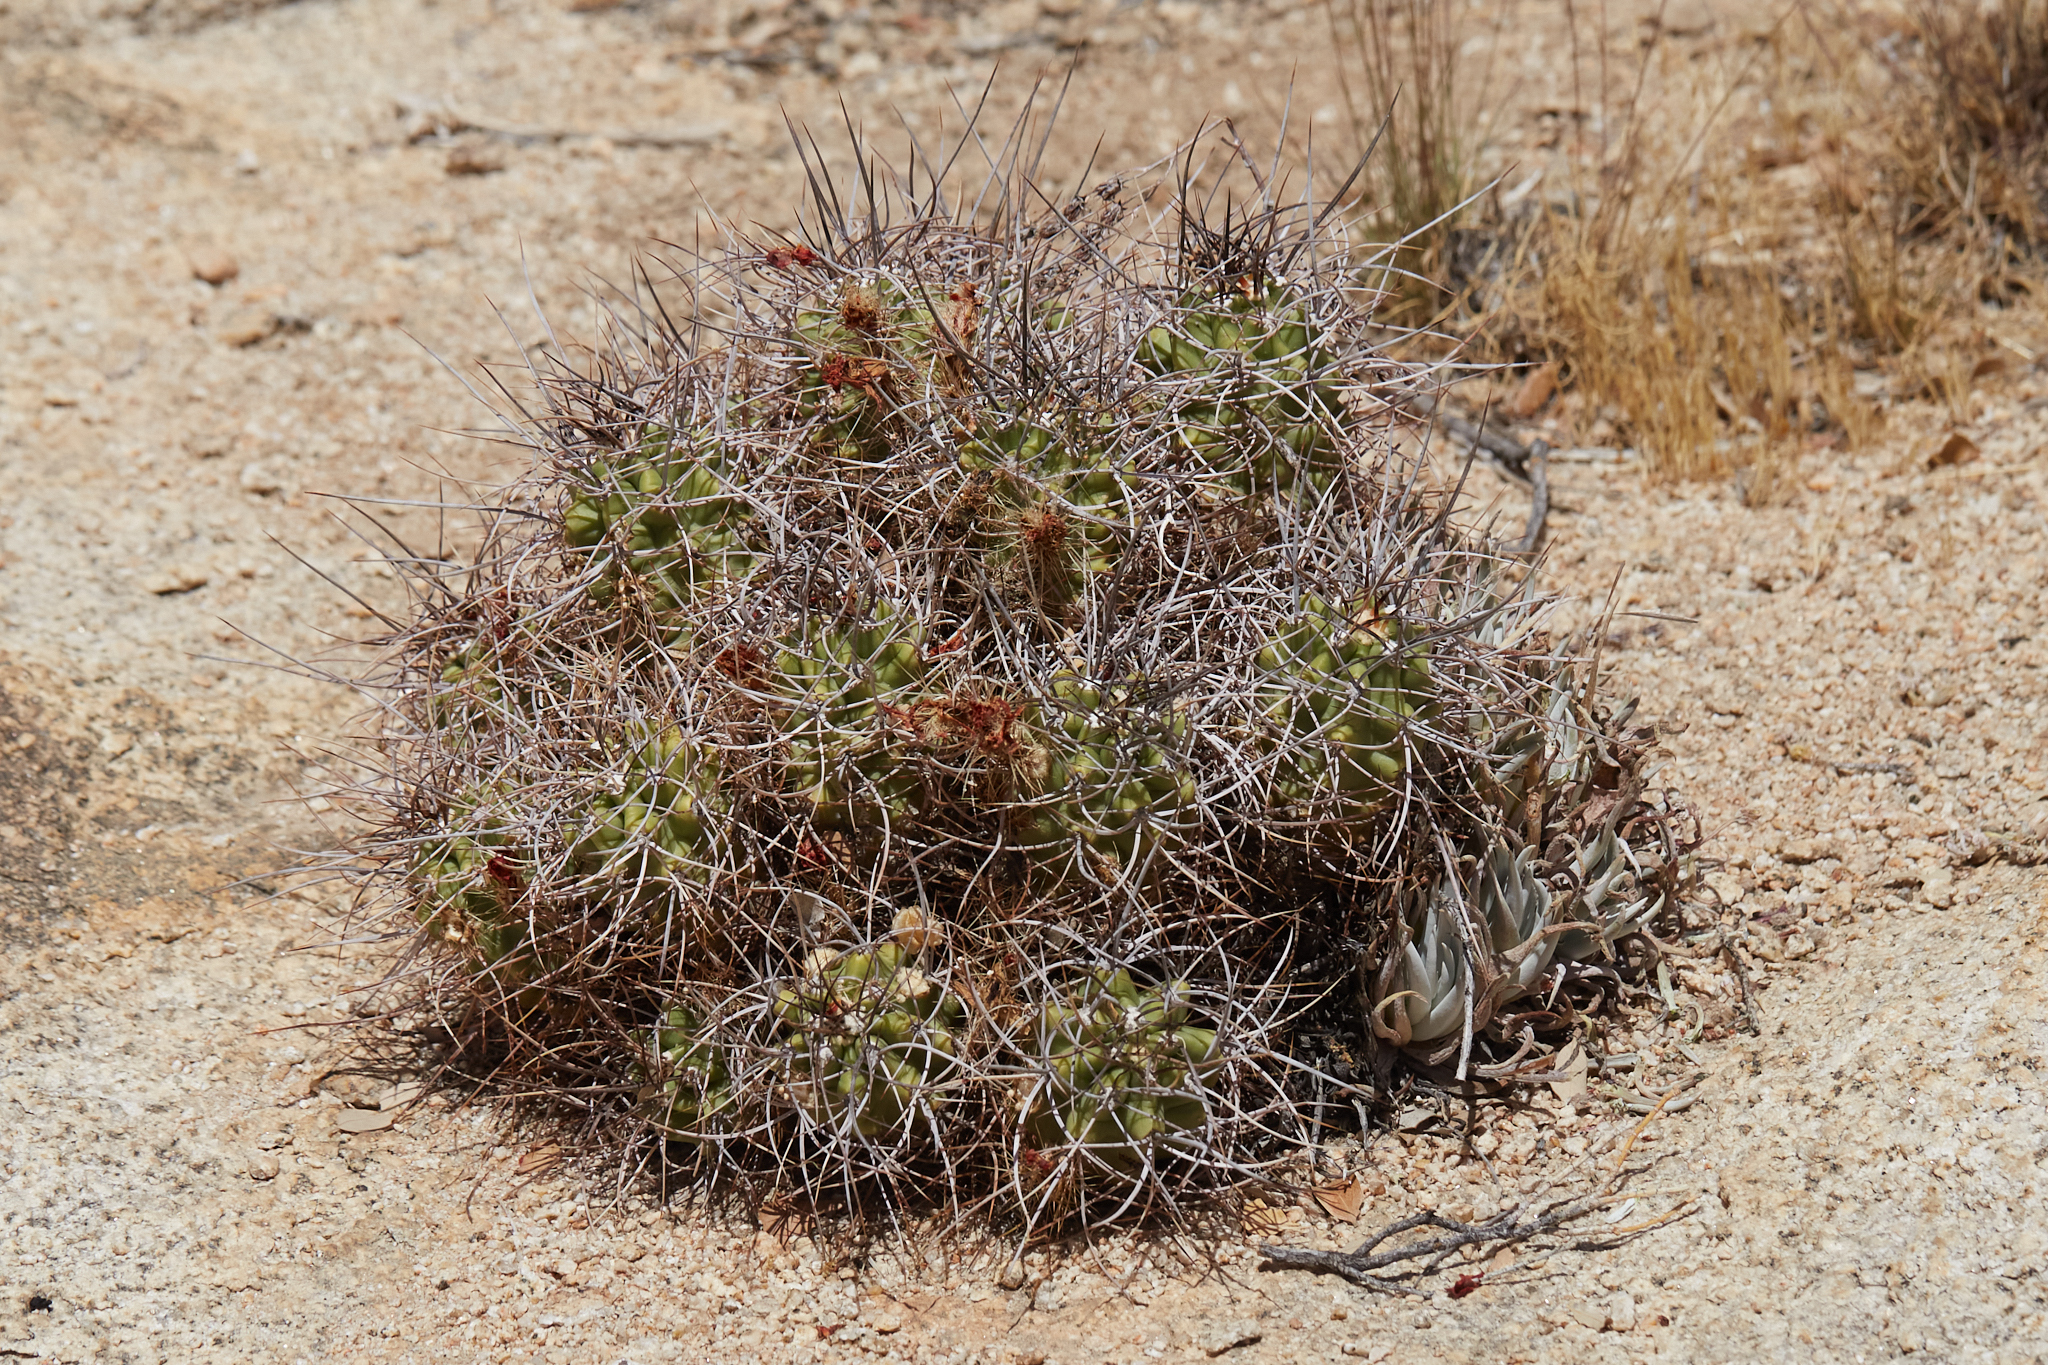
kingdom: Plantae
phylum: Tracheophyta
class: Magnoliopsida
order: Caryophyllales
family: Cactaceae
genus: Echinocereus
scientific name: Echinocereus triglochidiatus
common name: Claretcup hedgehog
